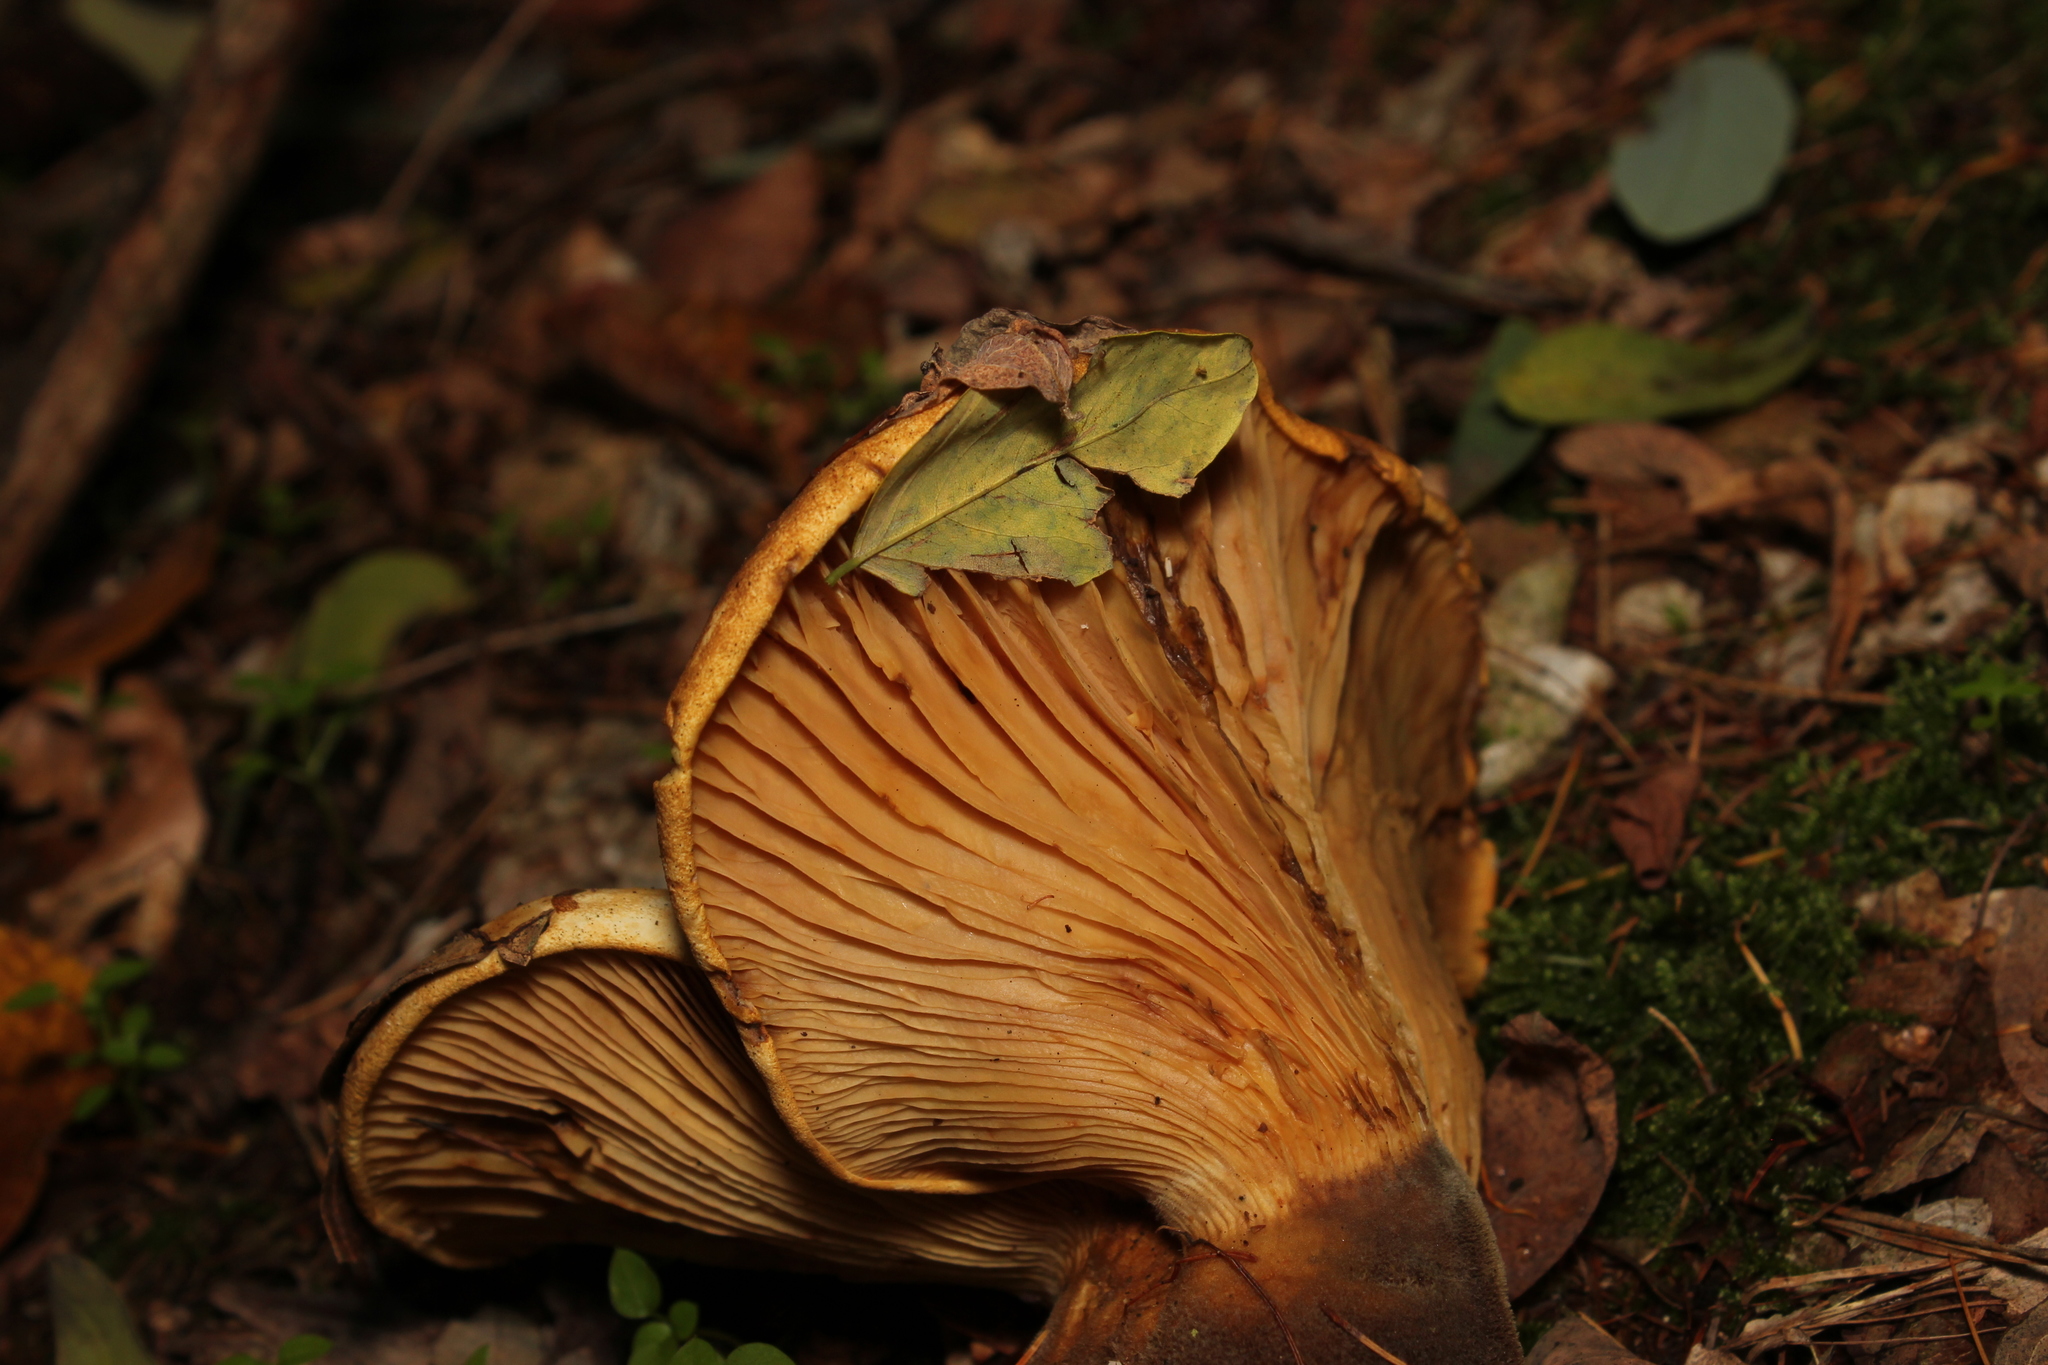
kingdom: Fungi
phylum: Basidiomycota
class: Agaricomycetes
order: Boletales
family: Tapinellaceae
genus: Tapinella
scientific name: Tapinella atrotomentosa
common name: Velvet rollrim
